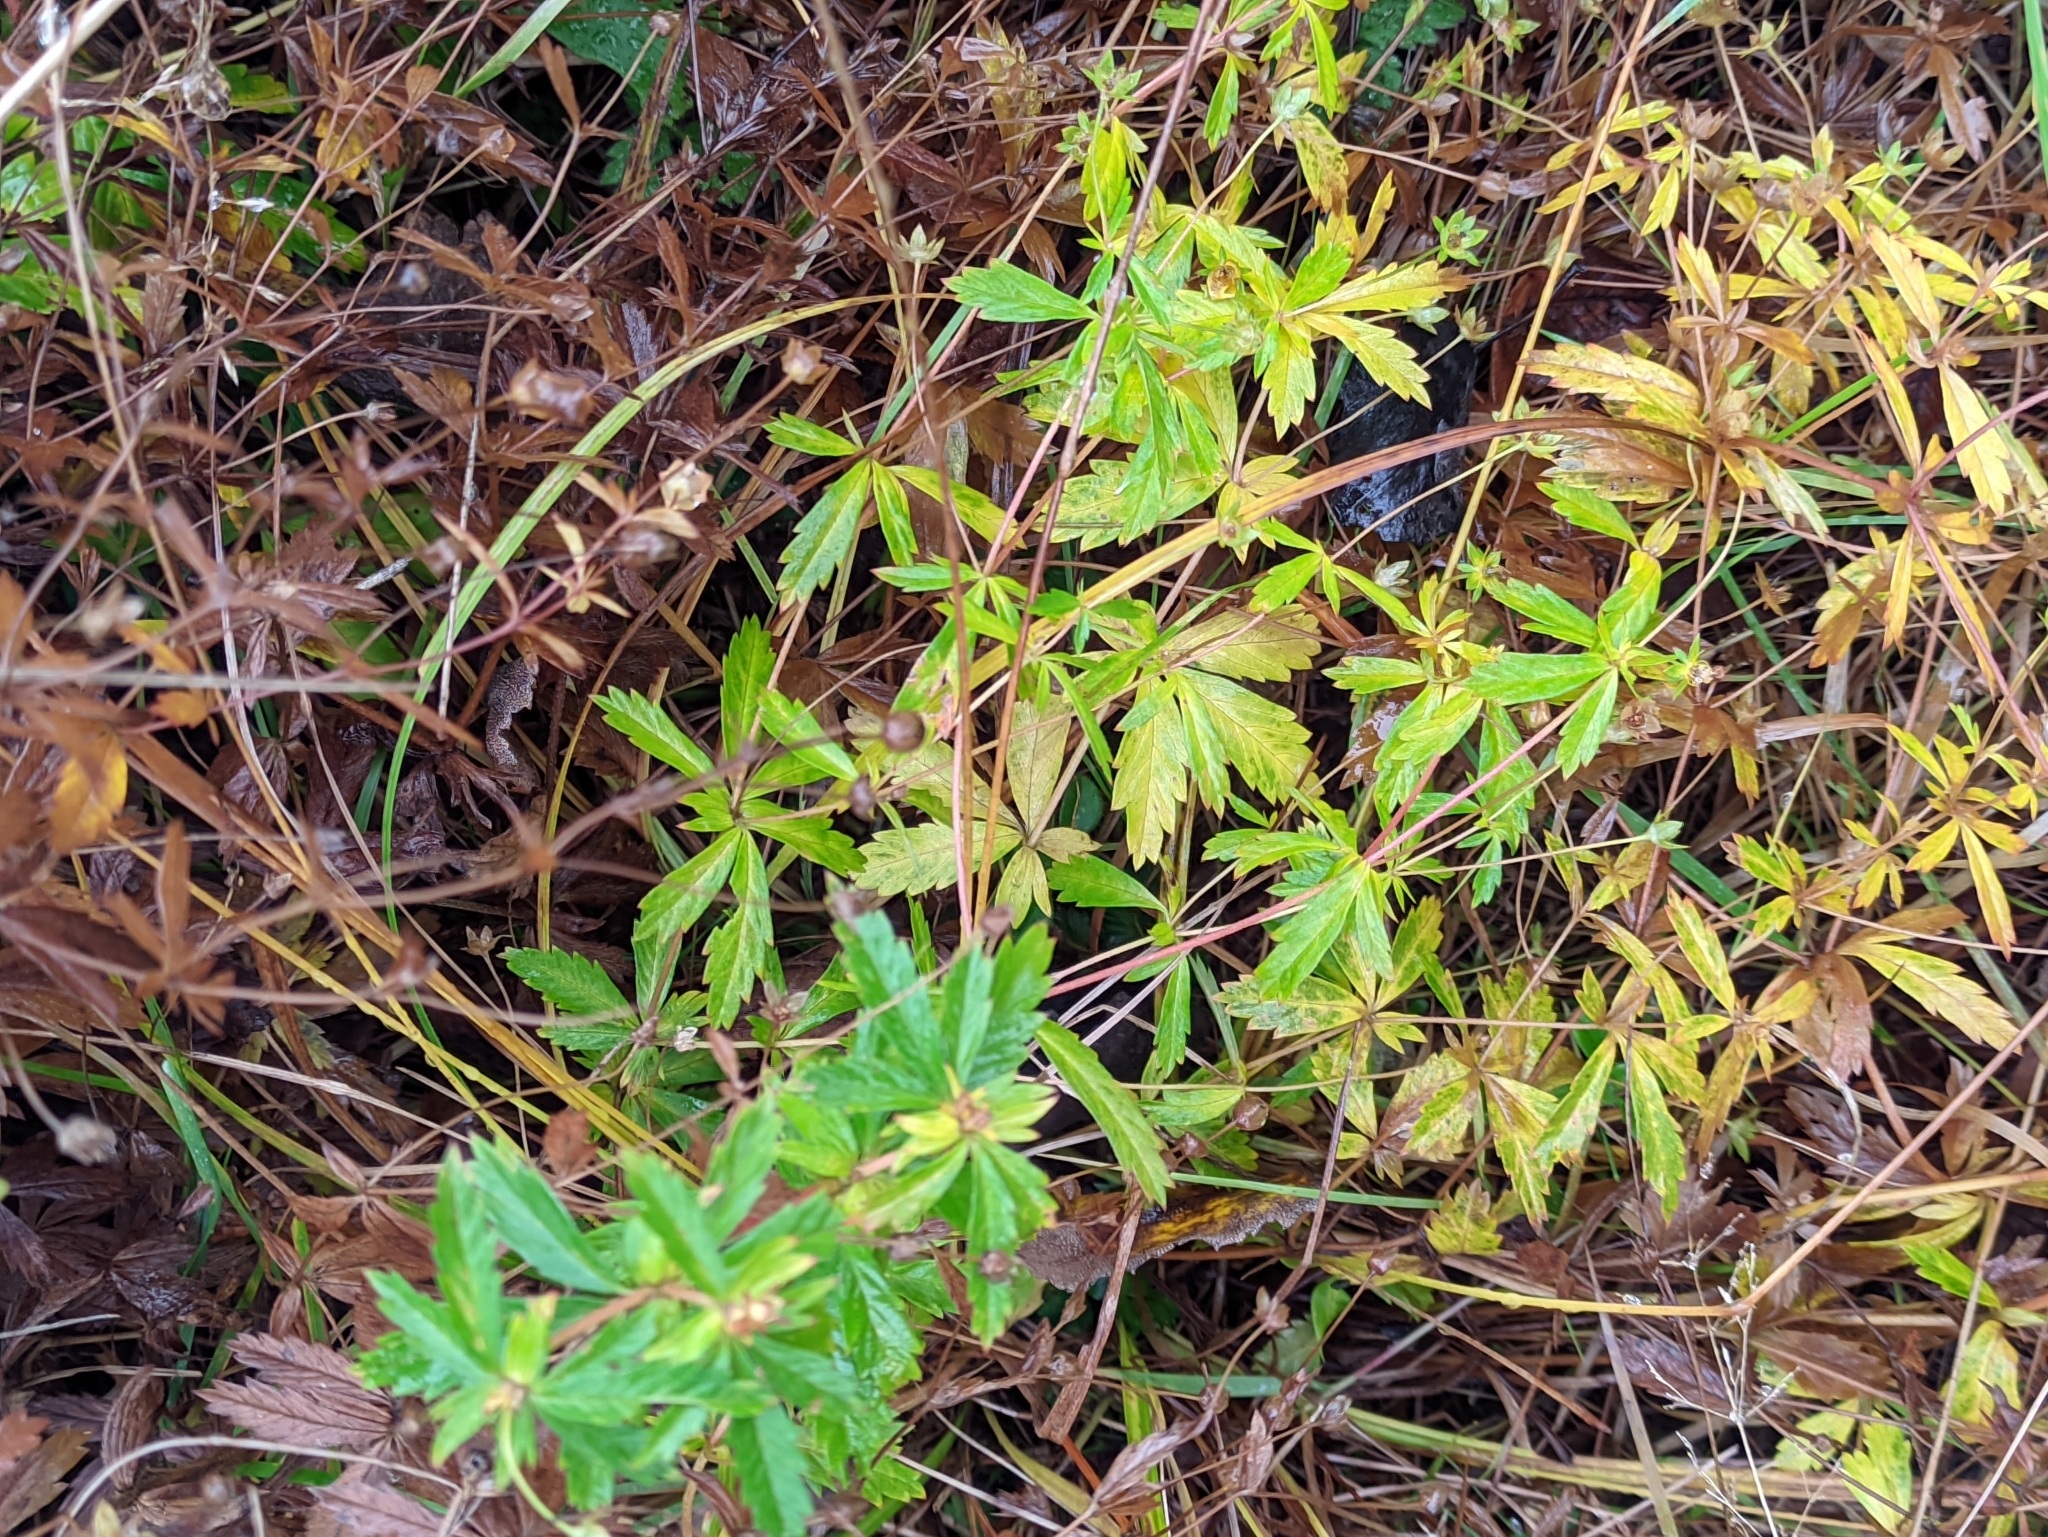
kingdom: Plantae
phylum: Tracheophyta
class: Magnoliopsida
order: Rosales
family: Rosaceae
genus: Potentilla
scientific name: Potentilla erecta
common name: Tormentil
